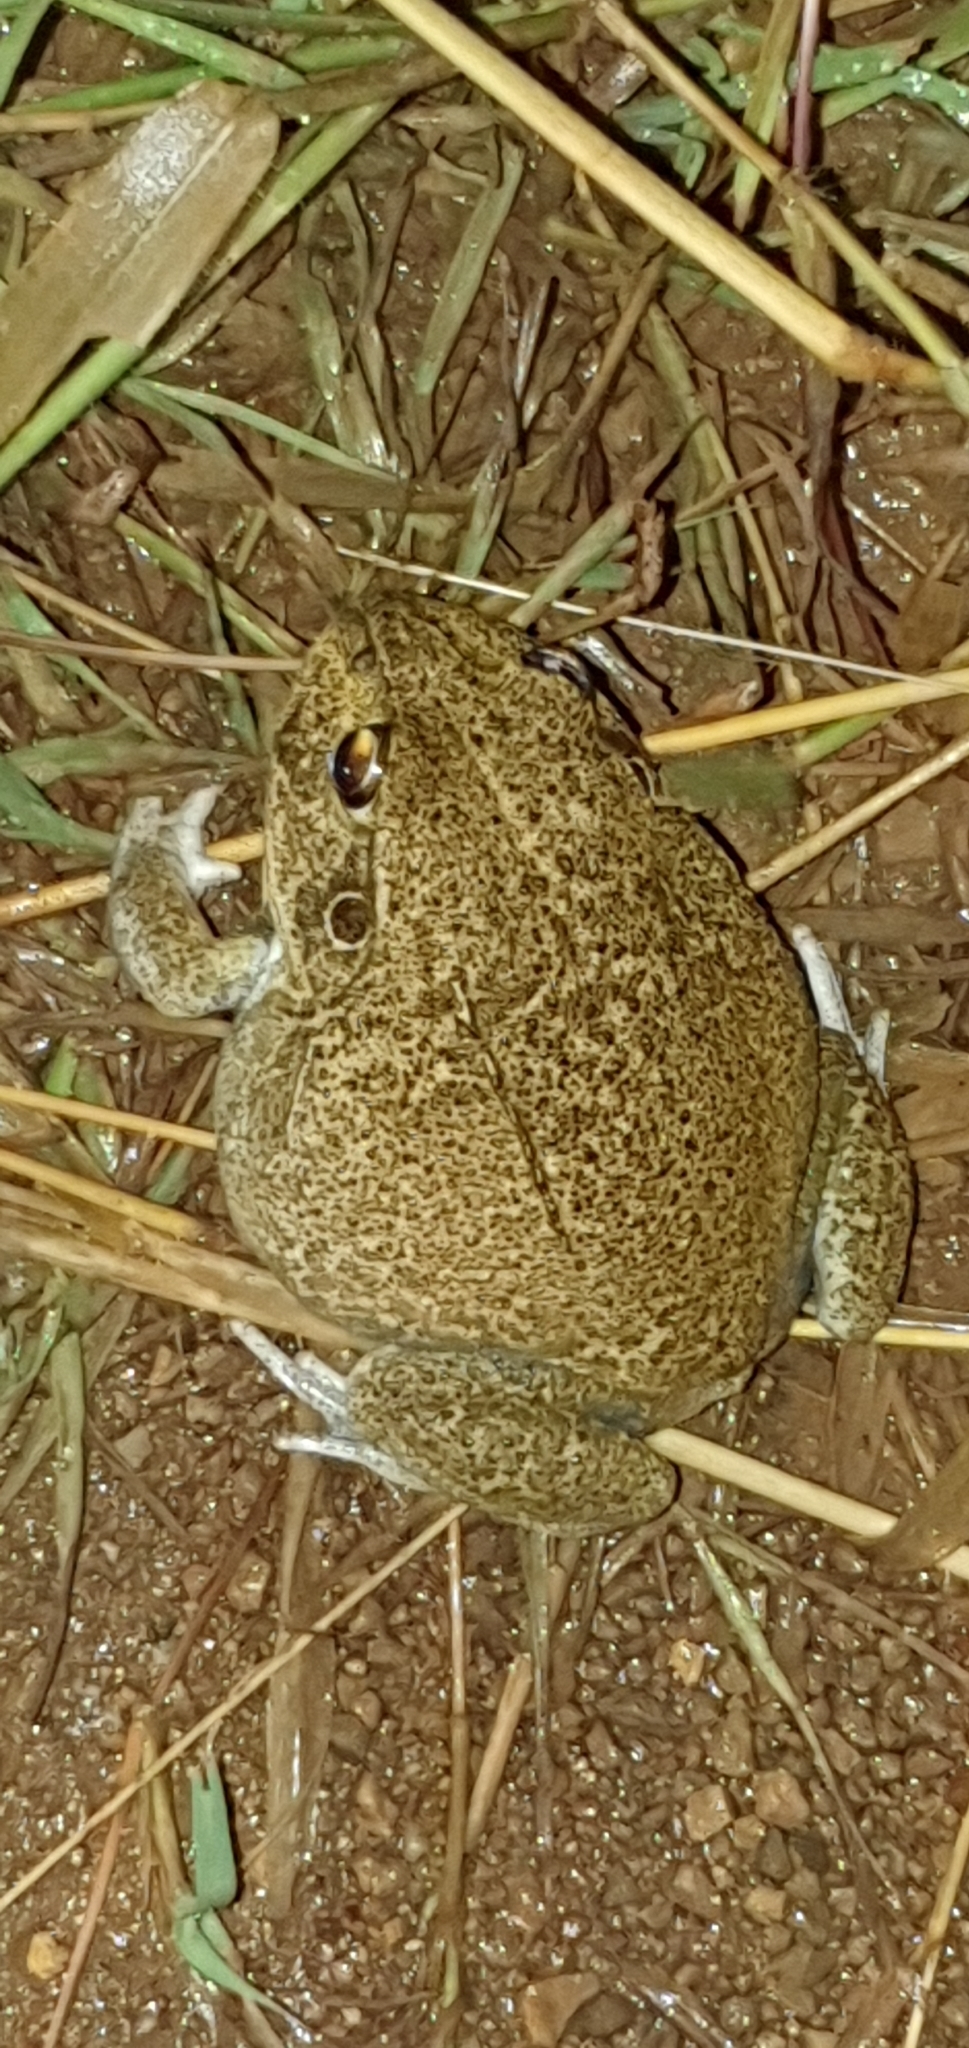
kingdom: Animalia
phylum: Chordata
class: Amphibia
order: Anura
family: Pelodryadidae
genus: Ranoidea
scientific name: Ranoidea novaehollandiae
